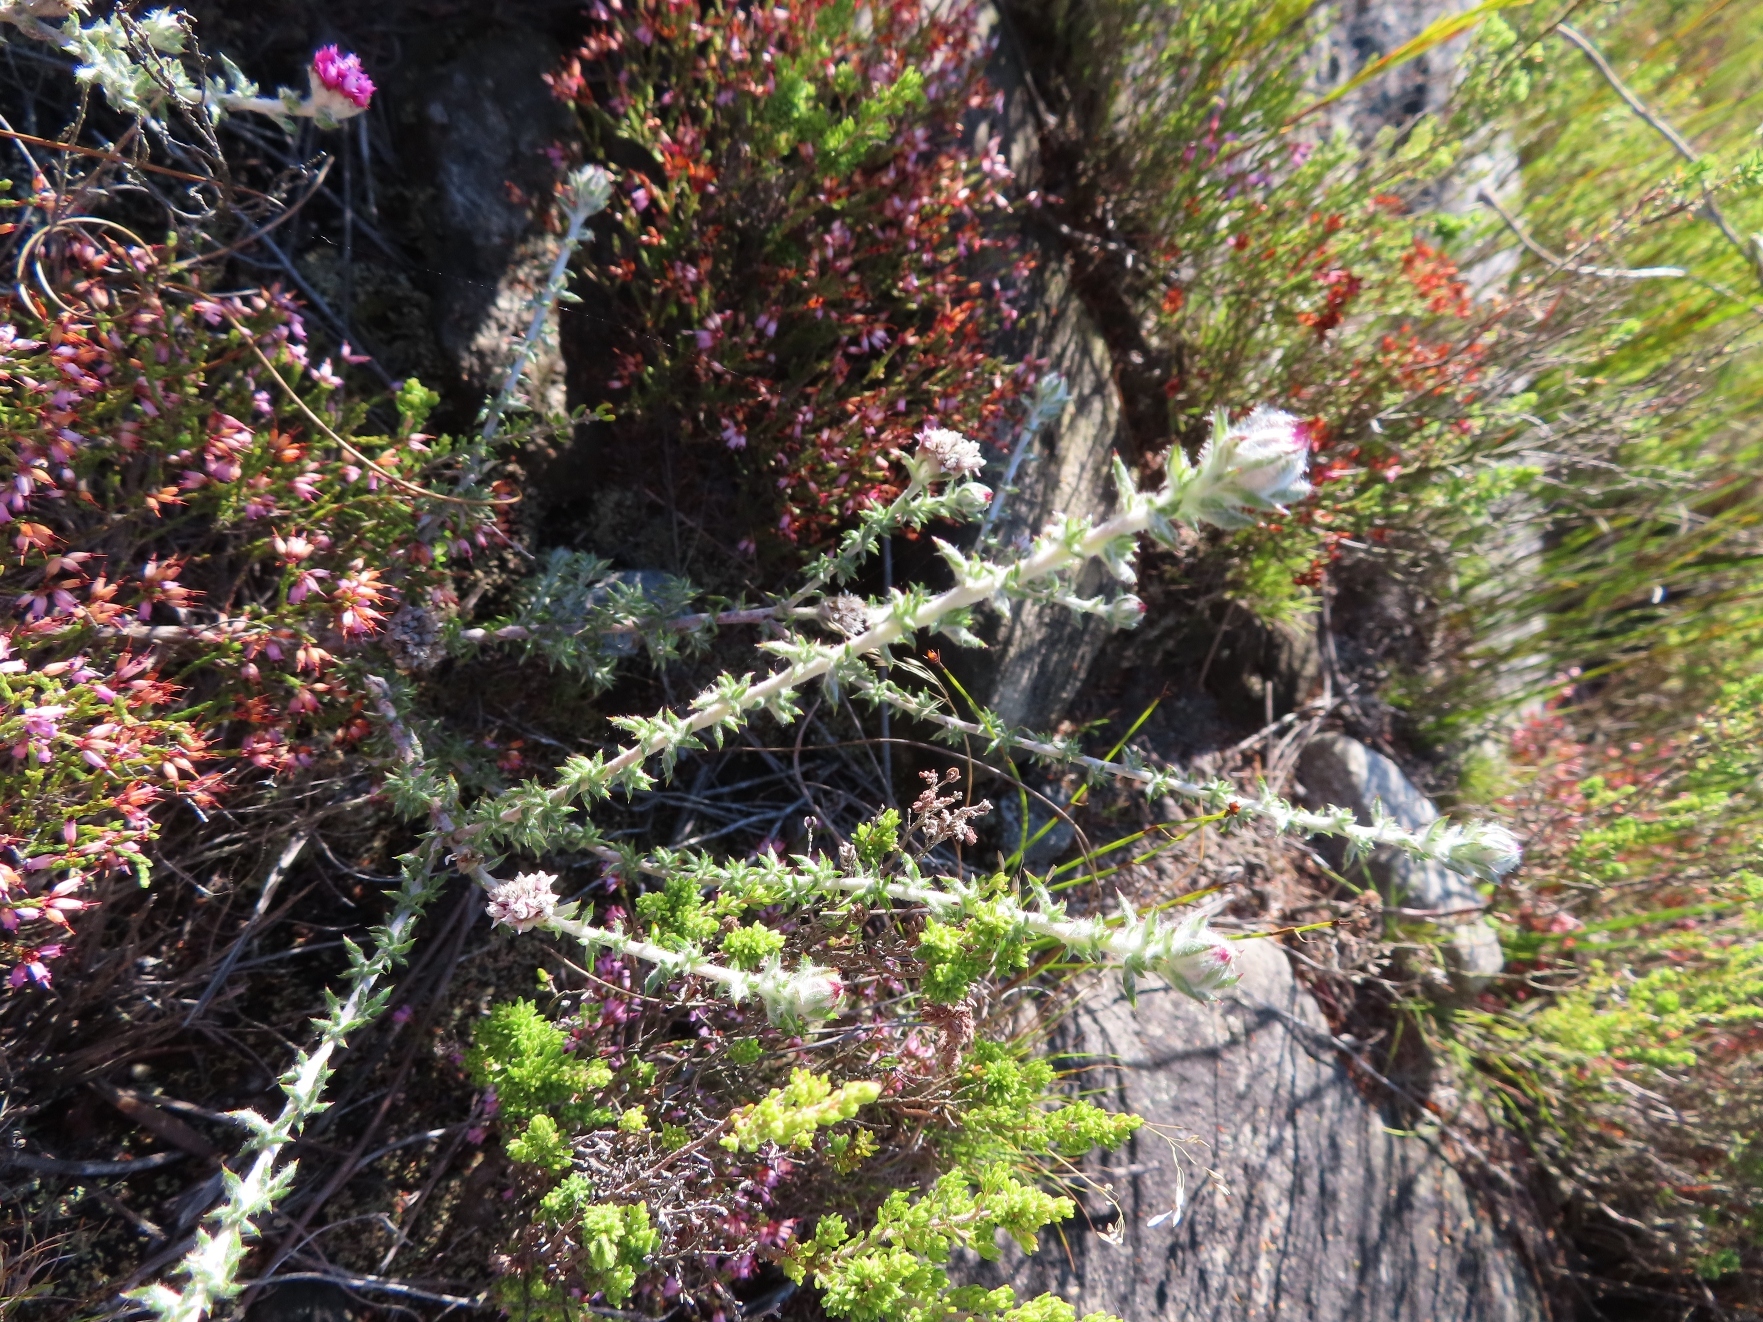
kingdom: Plantae
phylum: Tracheophyta
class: Magnoliopsida
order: Asterales
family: Asteraceae
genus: Metalasia
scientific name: Metalasia erubescens
